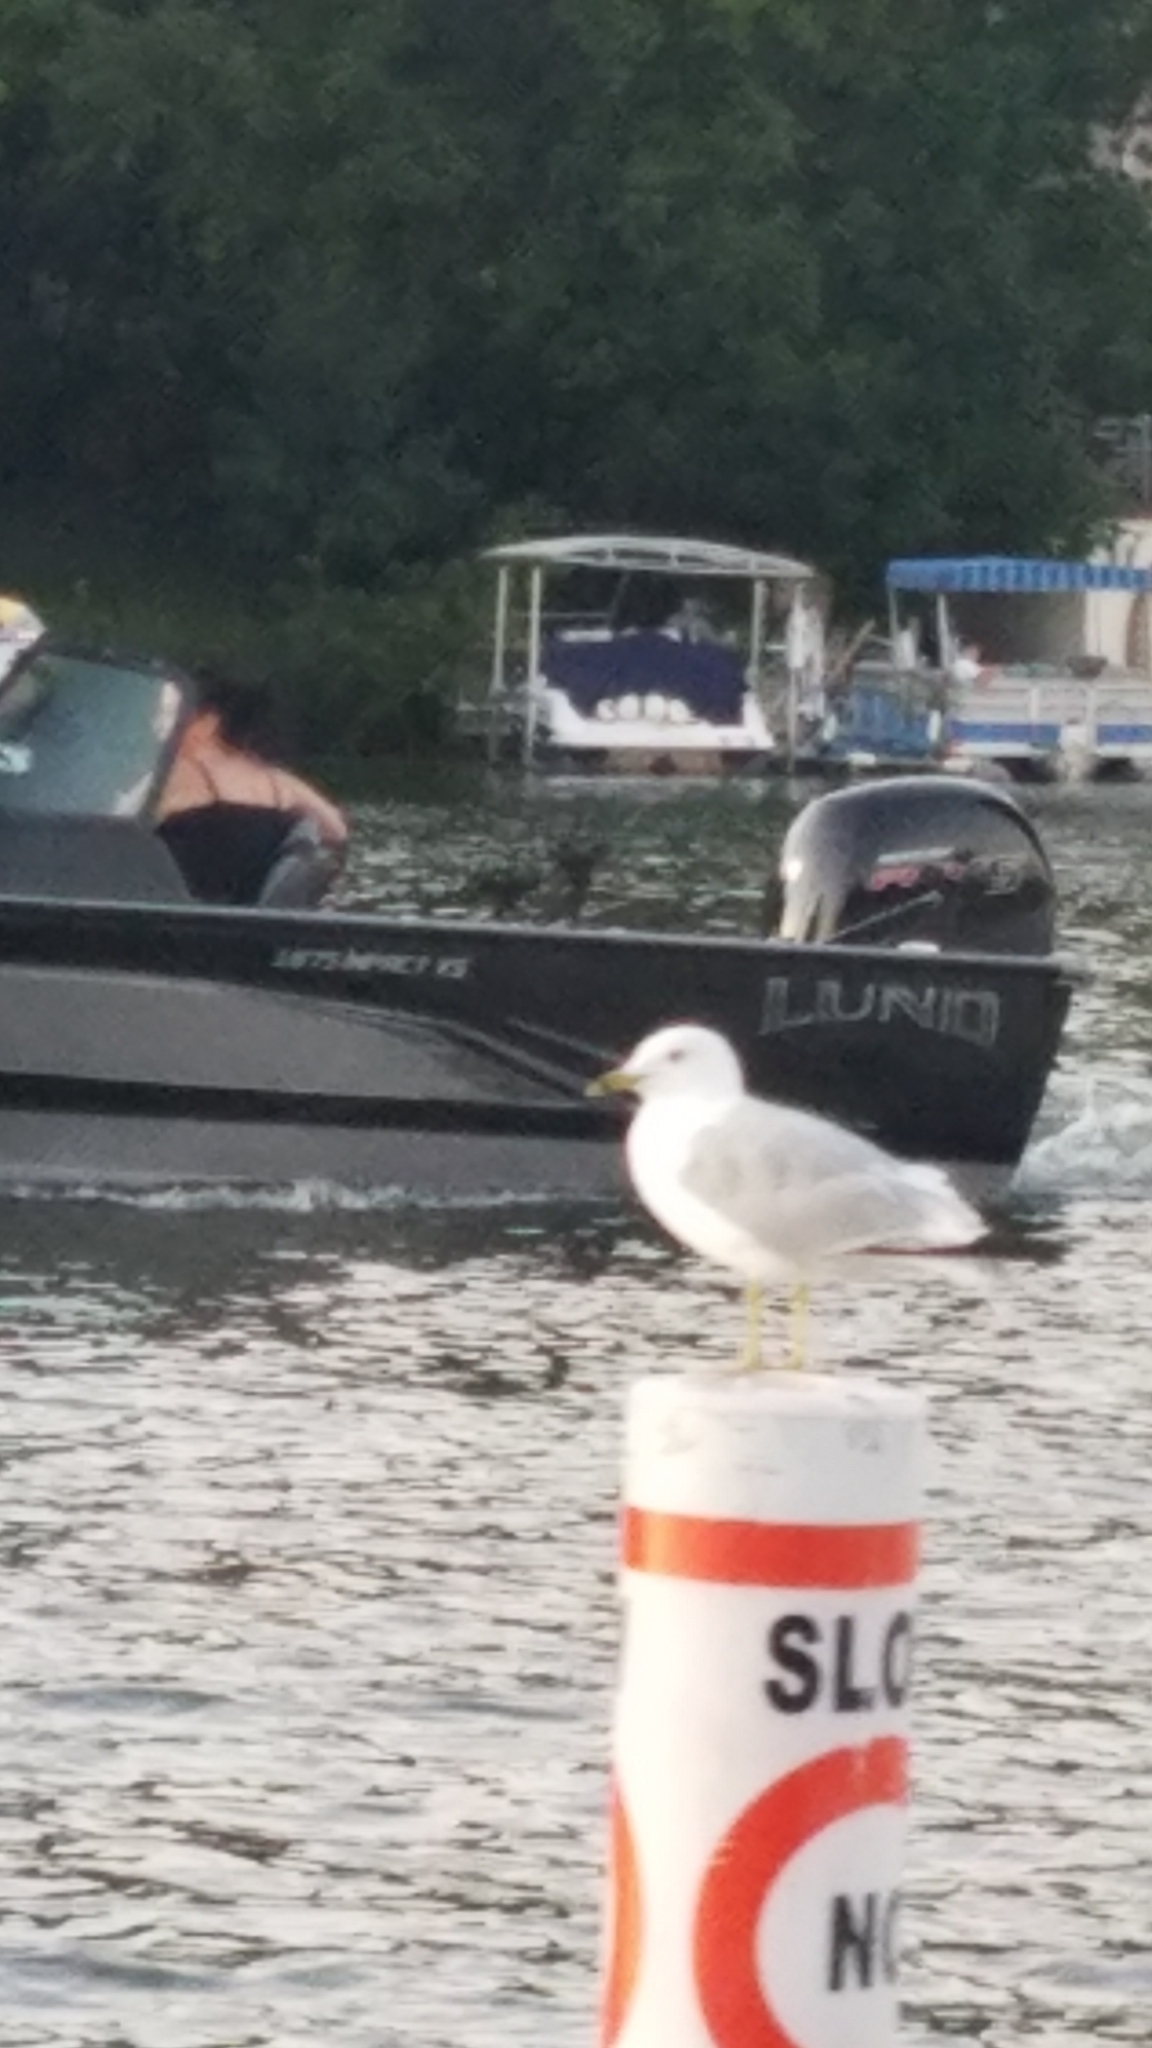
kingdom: Animalia
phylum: Chordata
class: Aves
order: Charadriiformes
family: Laridae
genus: Larus
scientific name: Larus delawarensis
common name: Ring-billed gull
